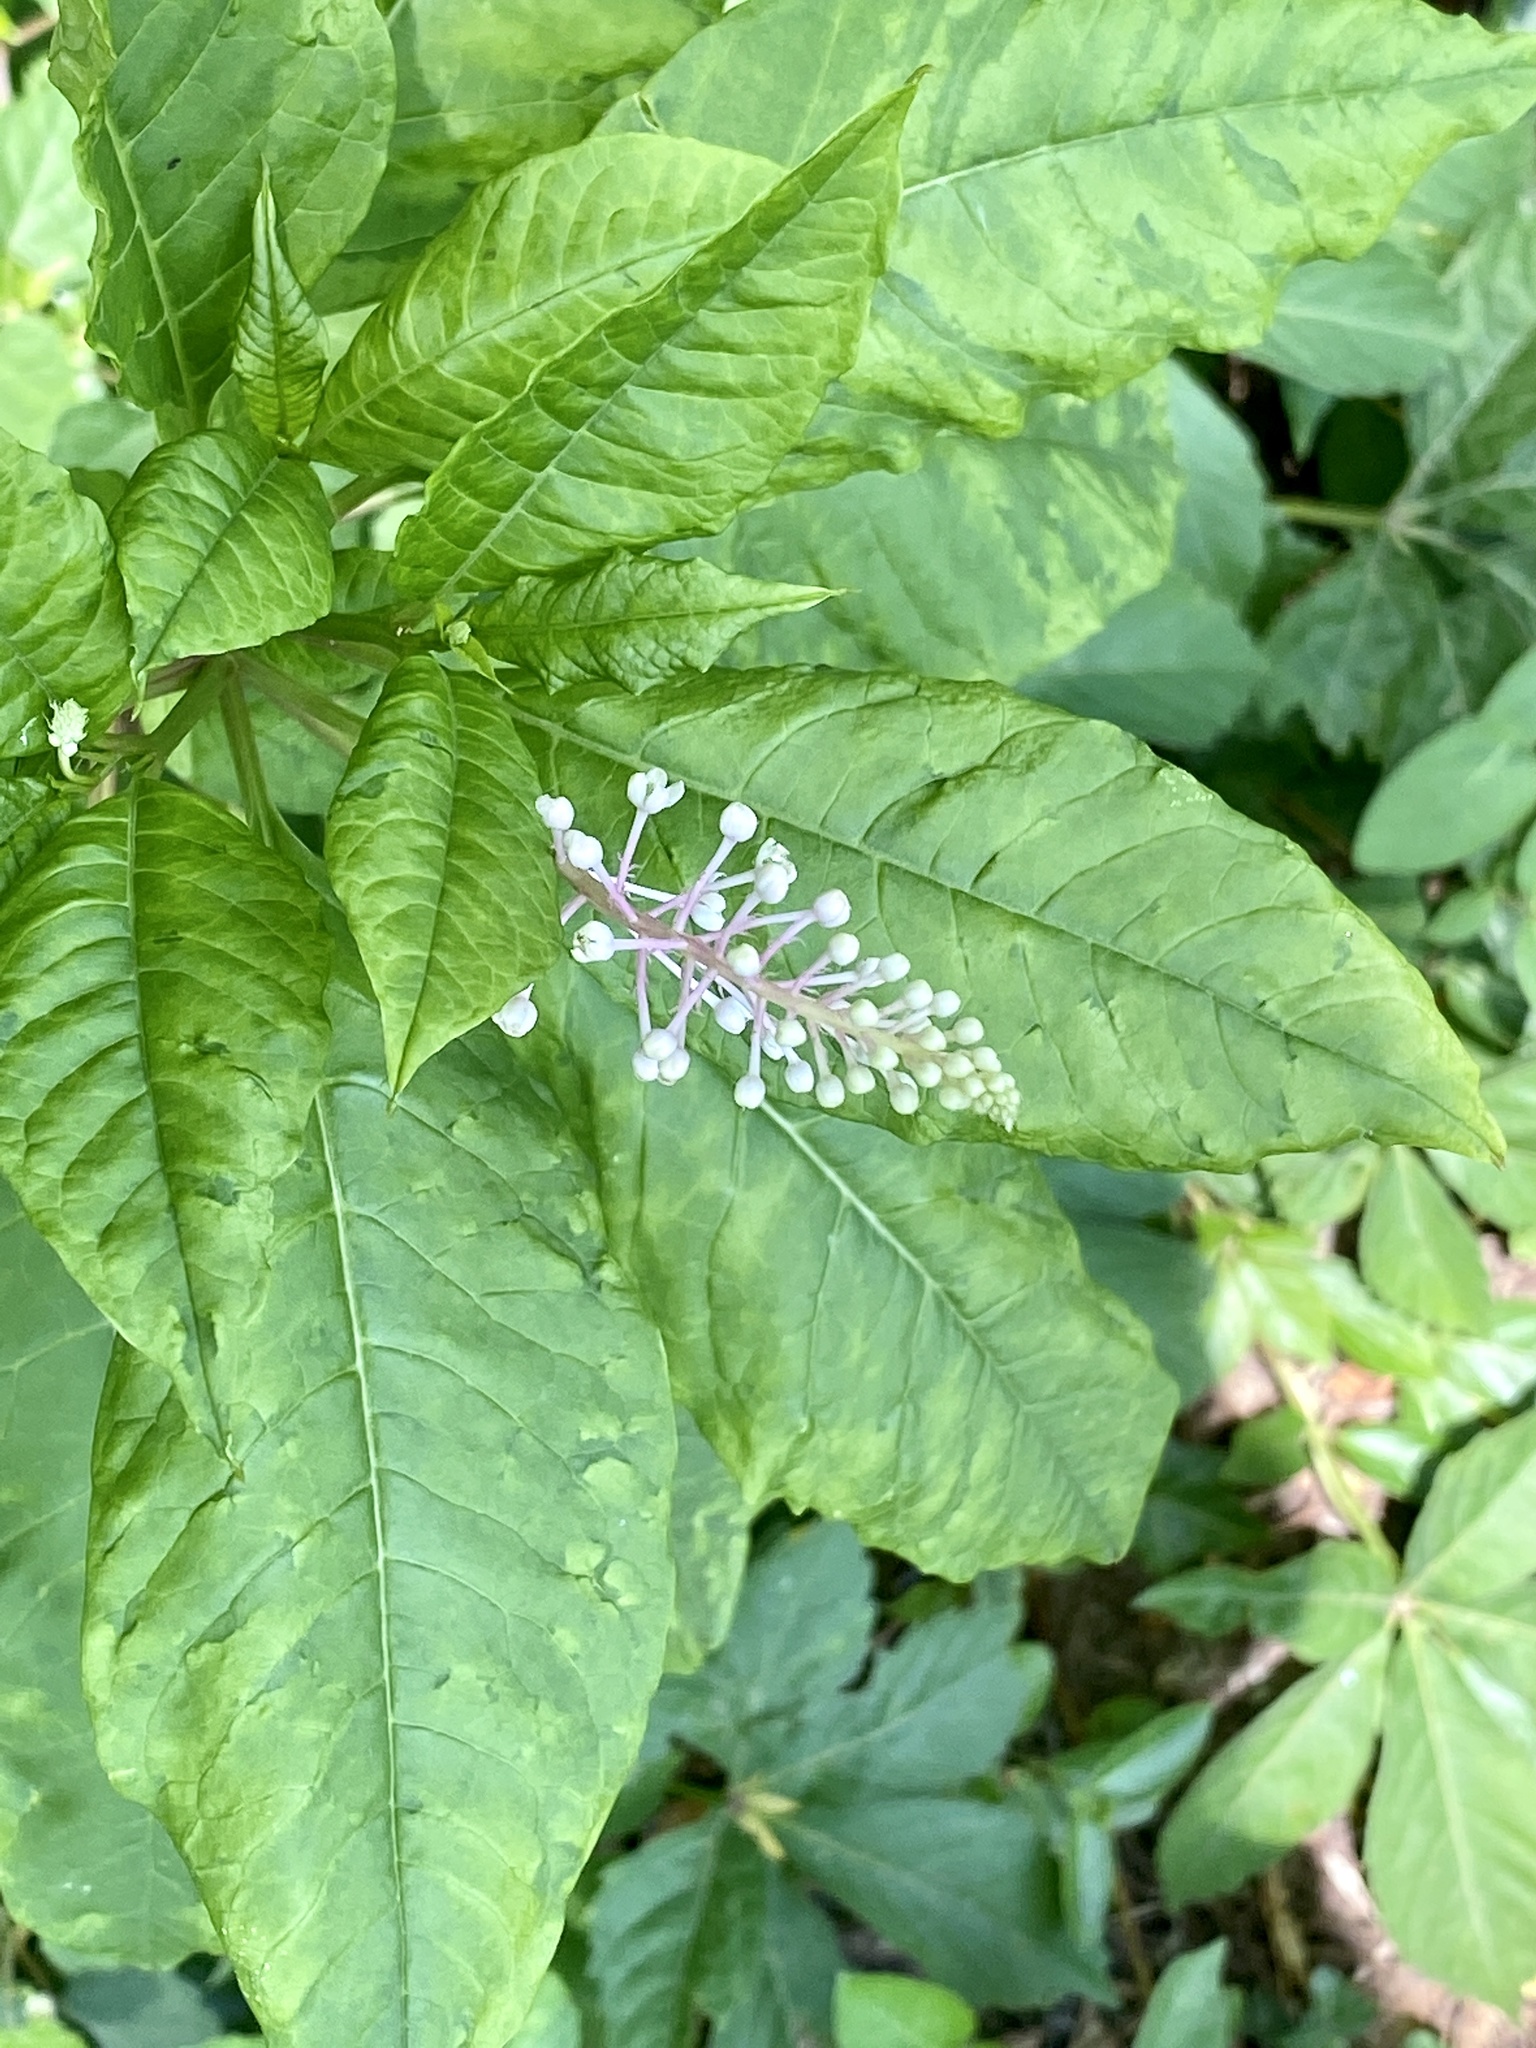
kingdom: Plantae
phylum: Tracheophyta
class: Magnoliopsida
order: Caryophyllales
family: Phytolaccaceae
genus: Phytolacca
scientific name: Phytolacca americana
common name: American pokeweed
